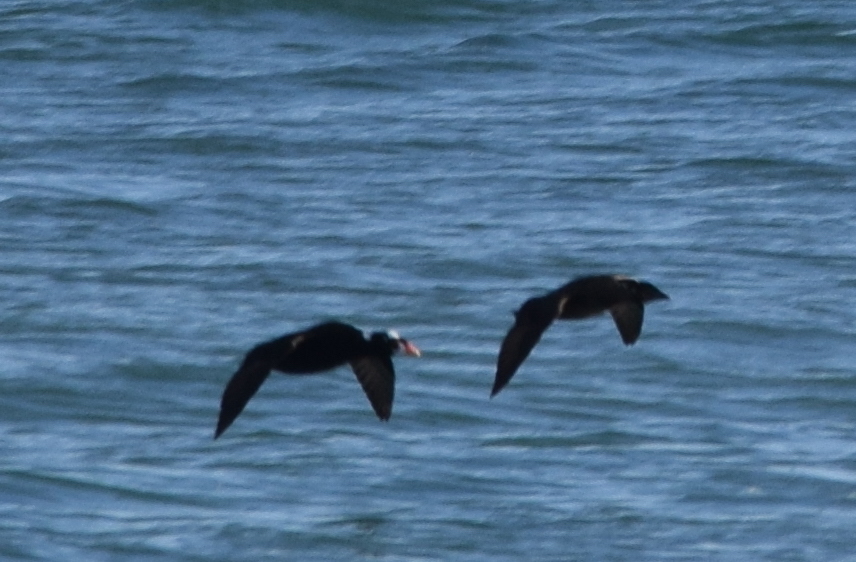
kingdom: Animalia
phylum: Chordata
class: Aves
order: Anseriformes
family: Anatidae
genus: Melanitta
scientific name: Melanitta perspicillata
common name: Surf scoter
